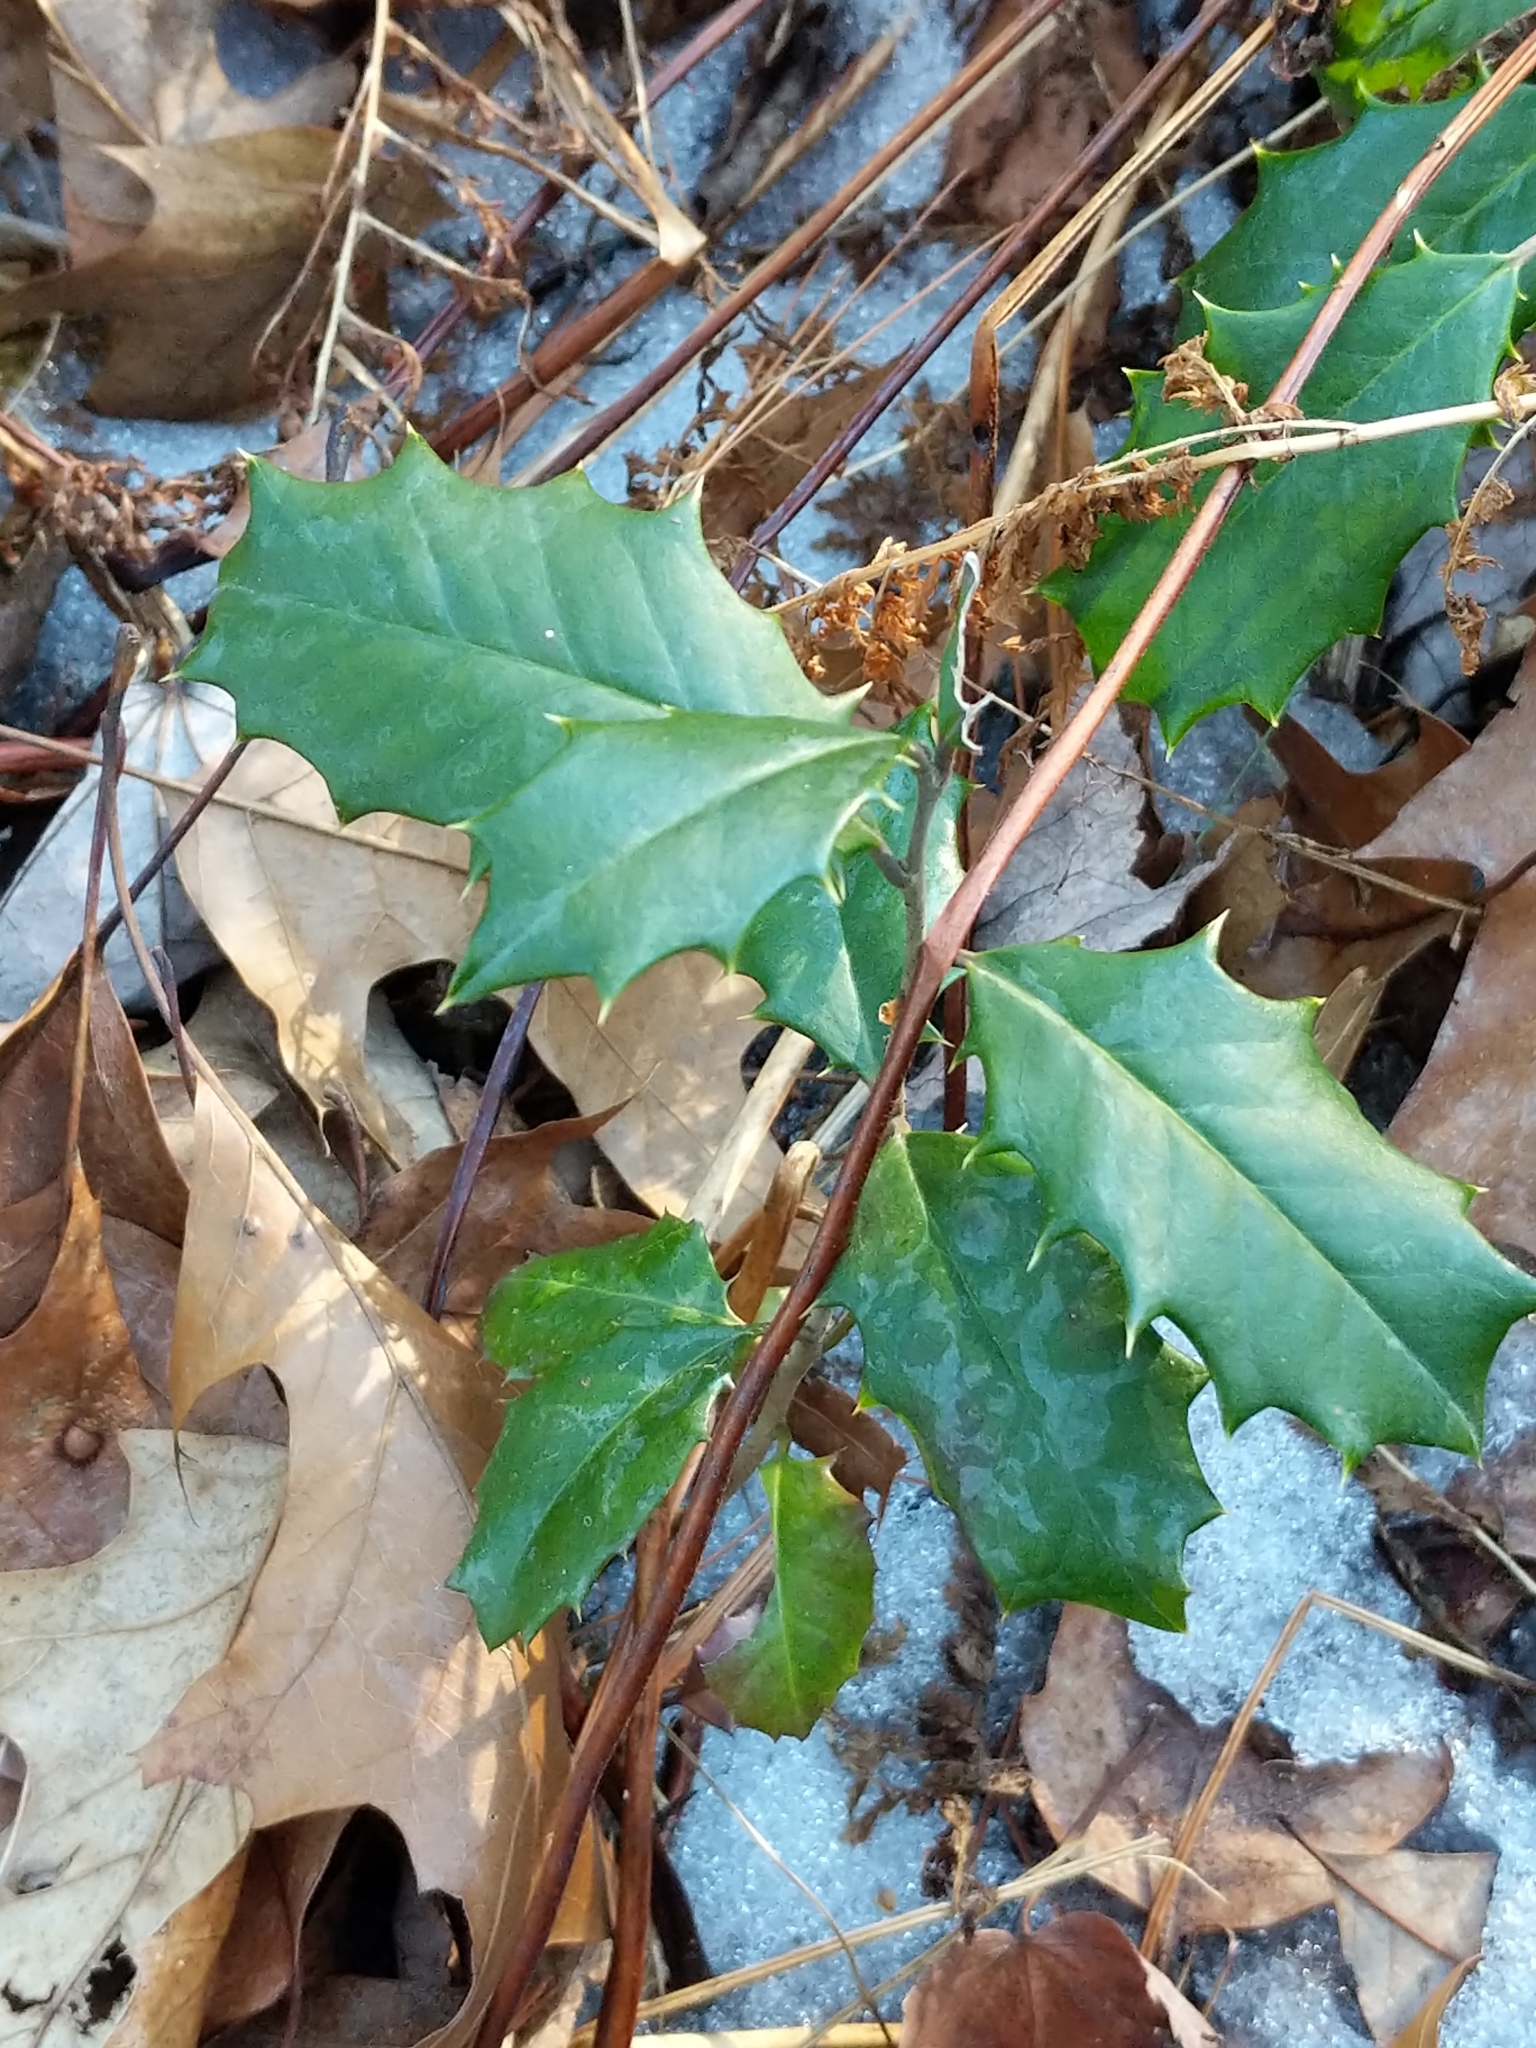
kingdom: Plantae
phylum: Tracheophyta
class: Magnoliopsida
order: Aquifoliales
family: Aquifoliaceae
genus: Ilex
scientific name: Ilex opaca
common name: American holly
